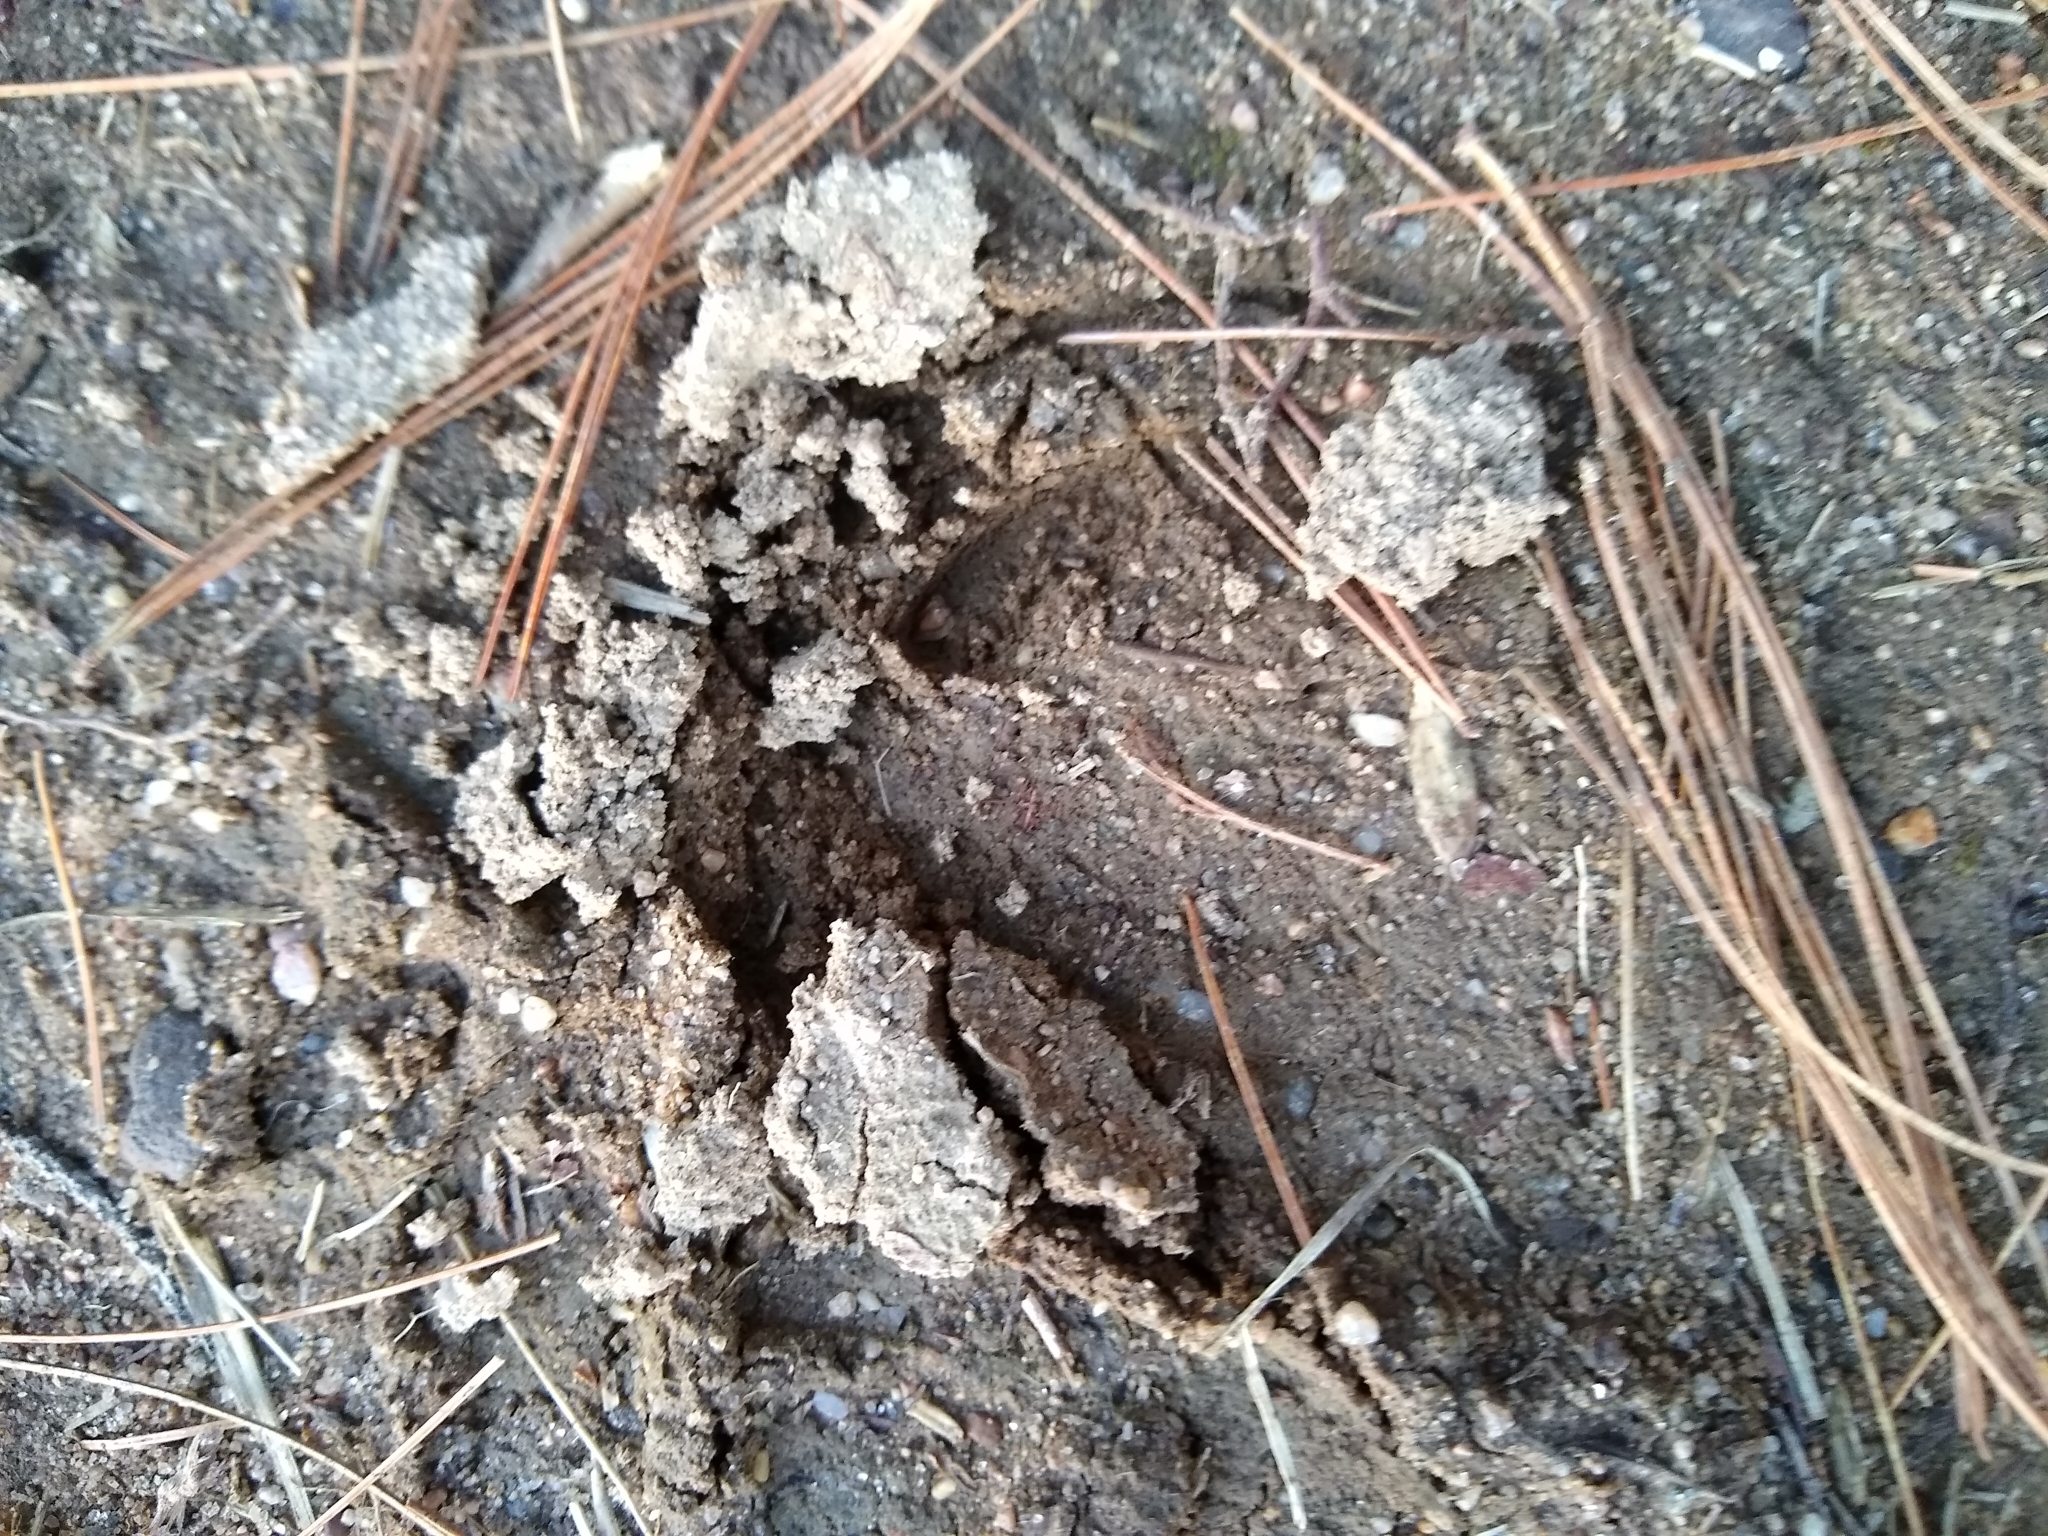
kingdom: Animalia
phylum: Chordata
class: Mammalia
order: Artiodactyla
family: Cervidae
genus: Odocoileus
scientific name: Odocoileus virginianus
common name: White-tailed deer
